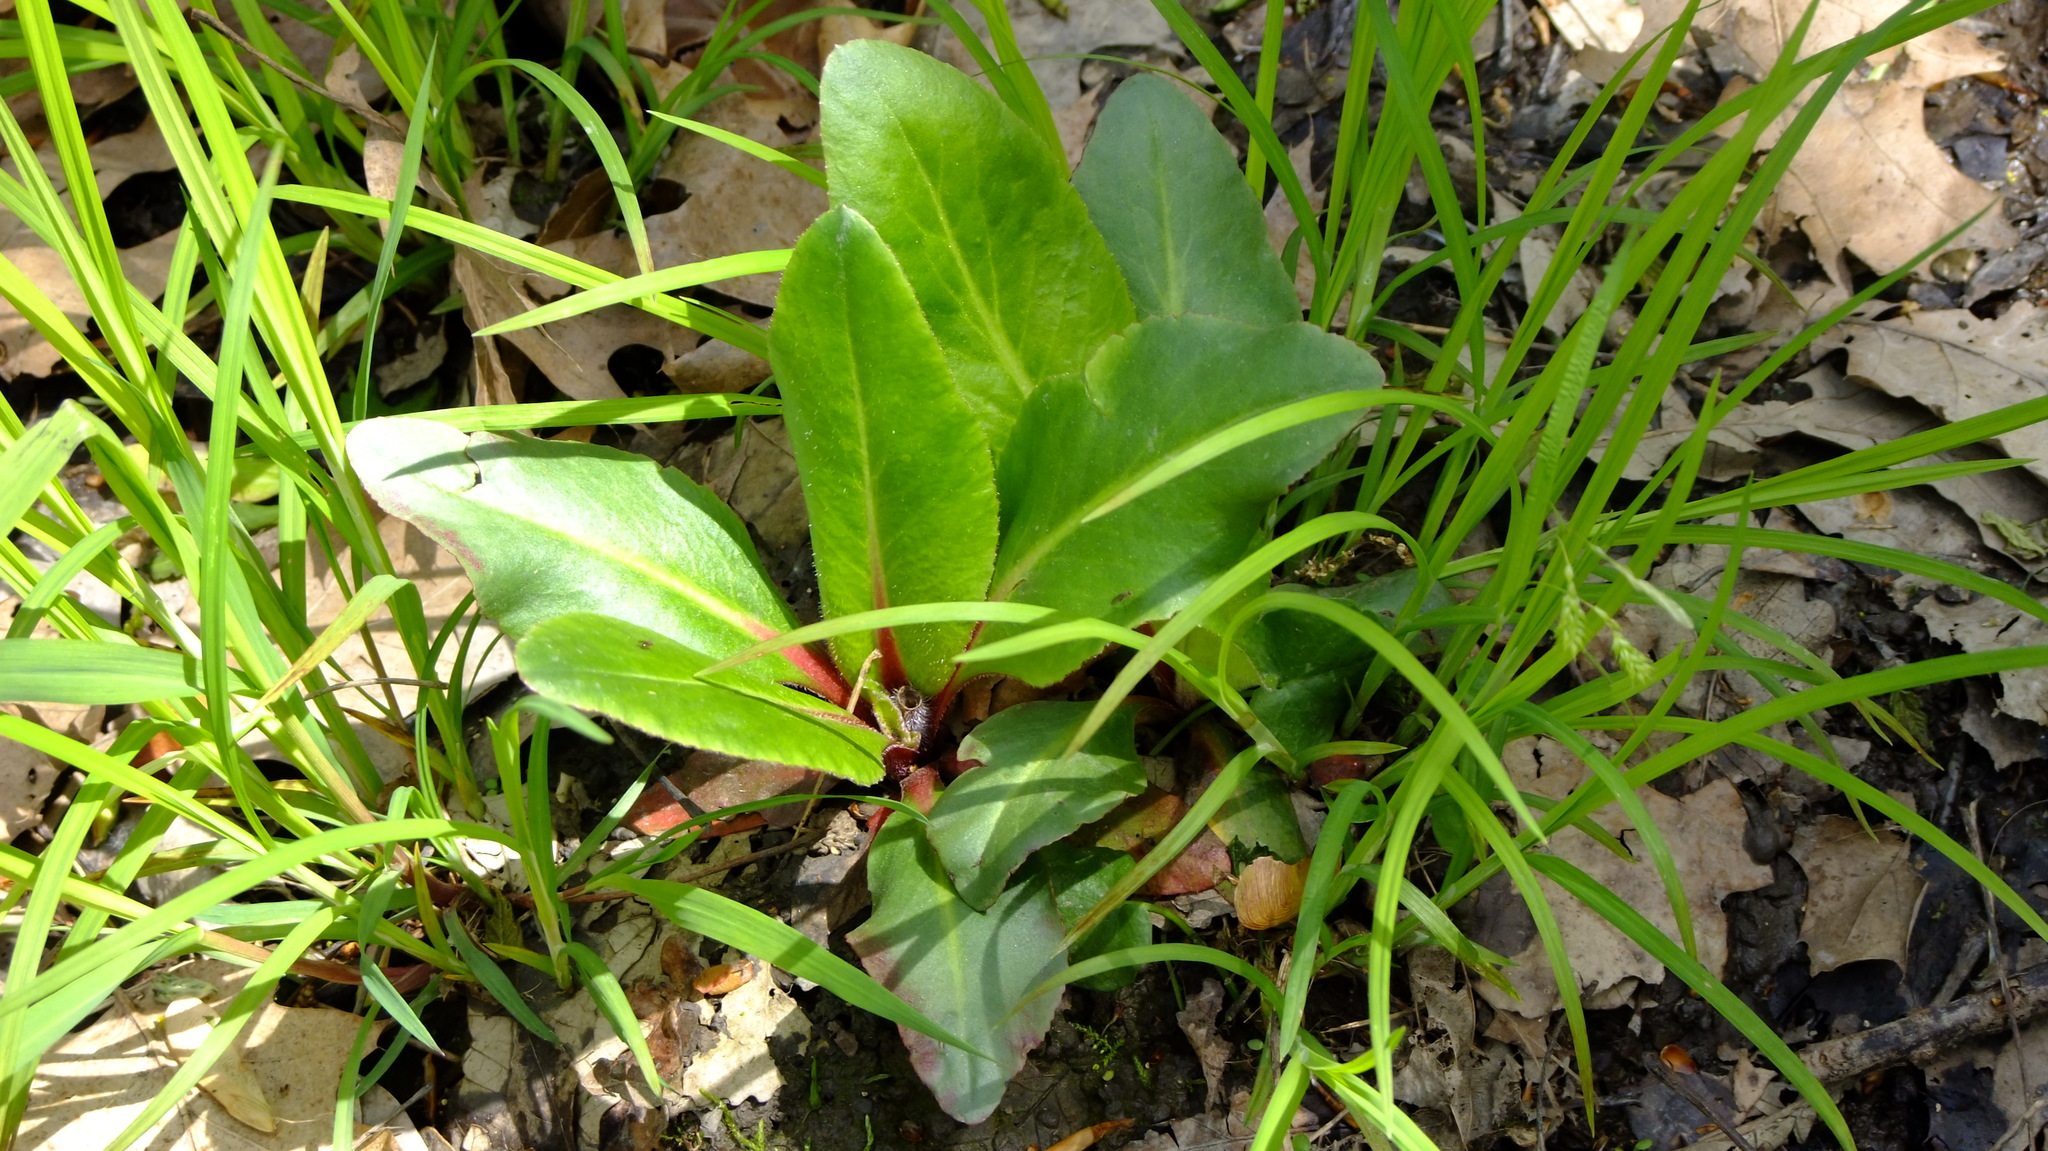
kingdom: Plantae
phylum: Tracheophyta
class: Magnoliopsida
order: Saxifragales
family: Saxifragaceae
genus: Micranthes
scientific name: Micranthes pensylvanica
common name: Marsh saxifrage
